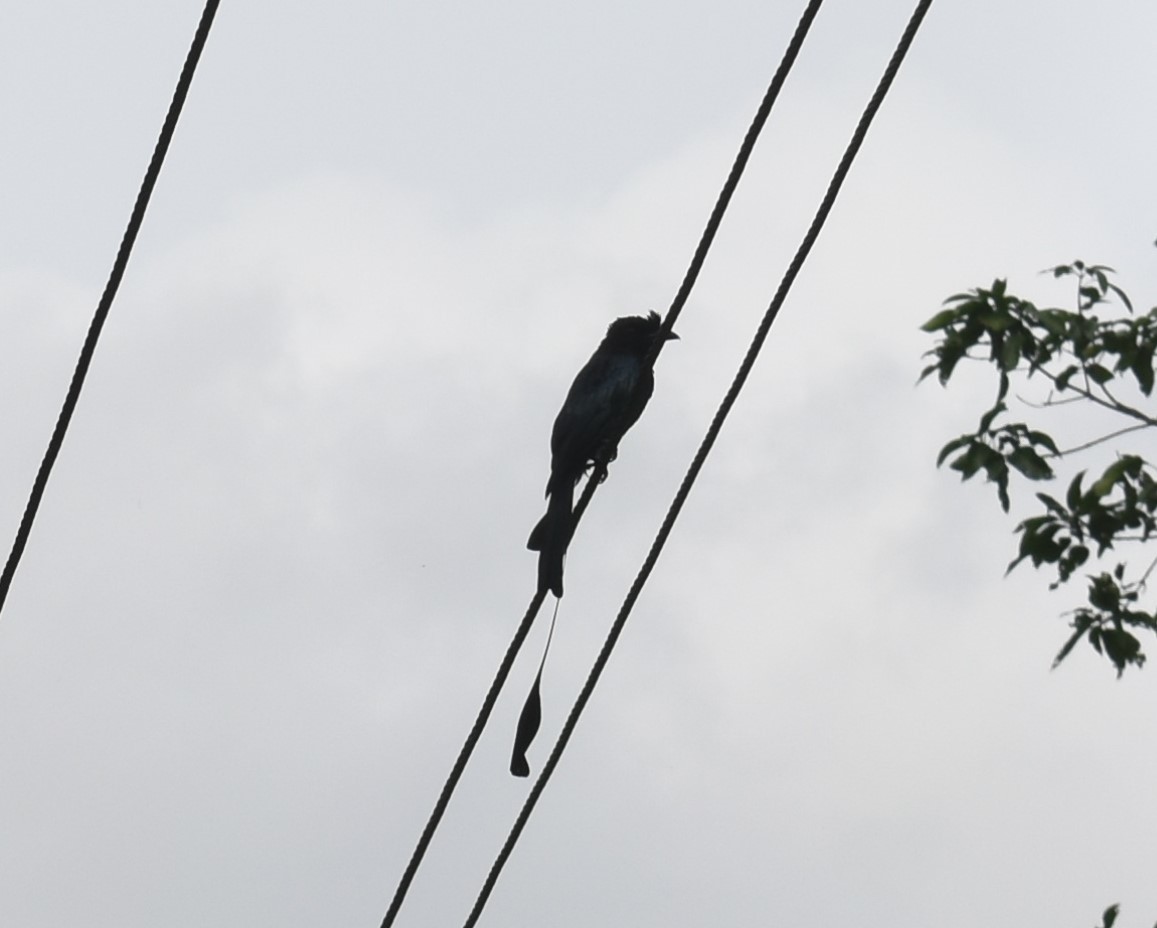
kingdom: Animalia
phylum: Chordata
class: Aves
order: Passeriformes
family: Dicruridae
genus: Dicrurus
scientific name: Dicrurus paradiseus
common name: Greater racket-tailed drongo
